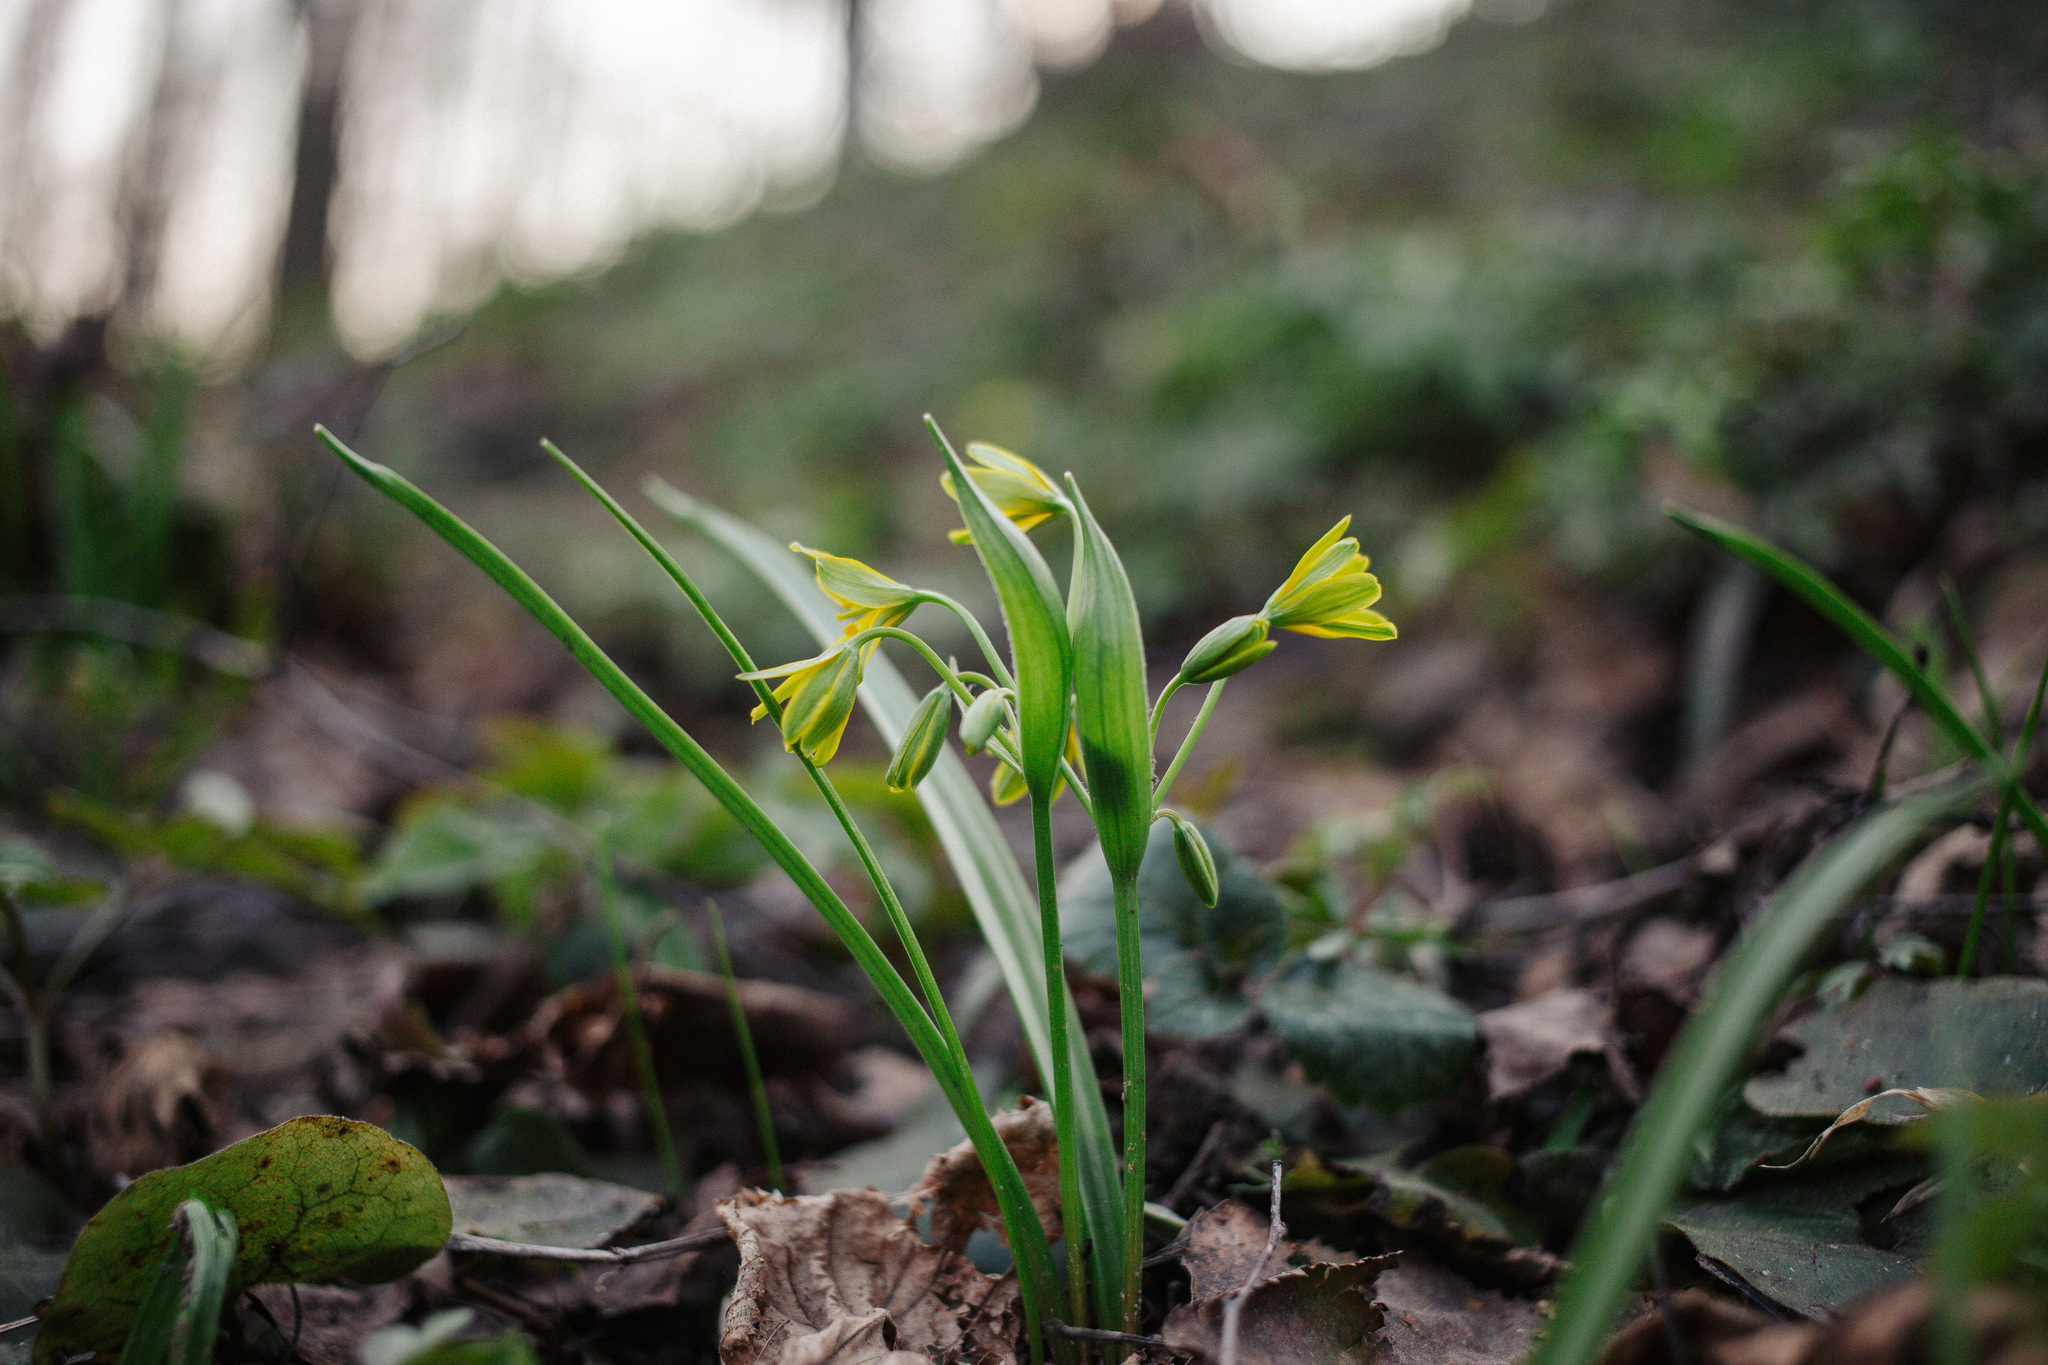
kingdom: Plantae
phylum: Tracheophyta
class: Liliopsida
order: Liliales
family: Liliaceae
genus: Gagea
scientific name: Gagea lutea
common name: Yellow star-of-bethlehem
